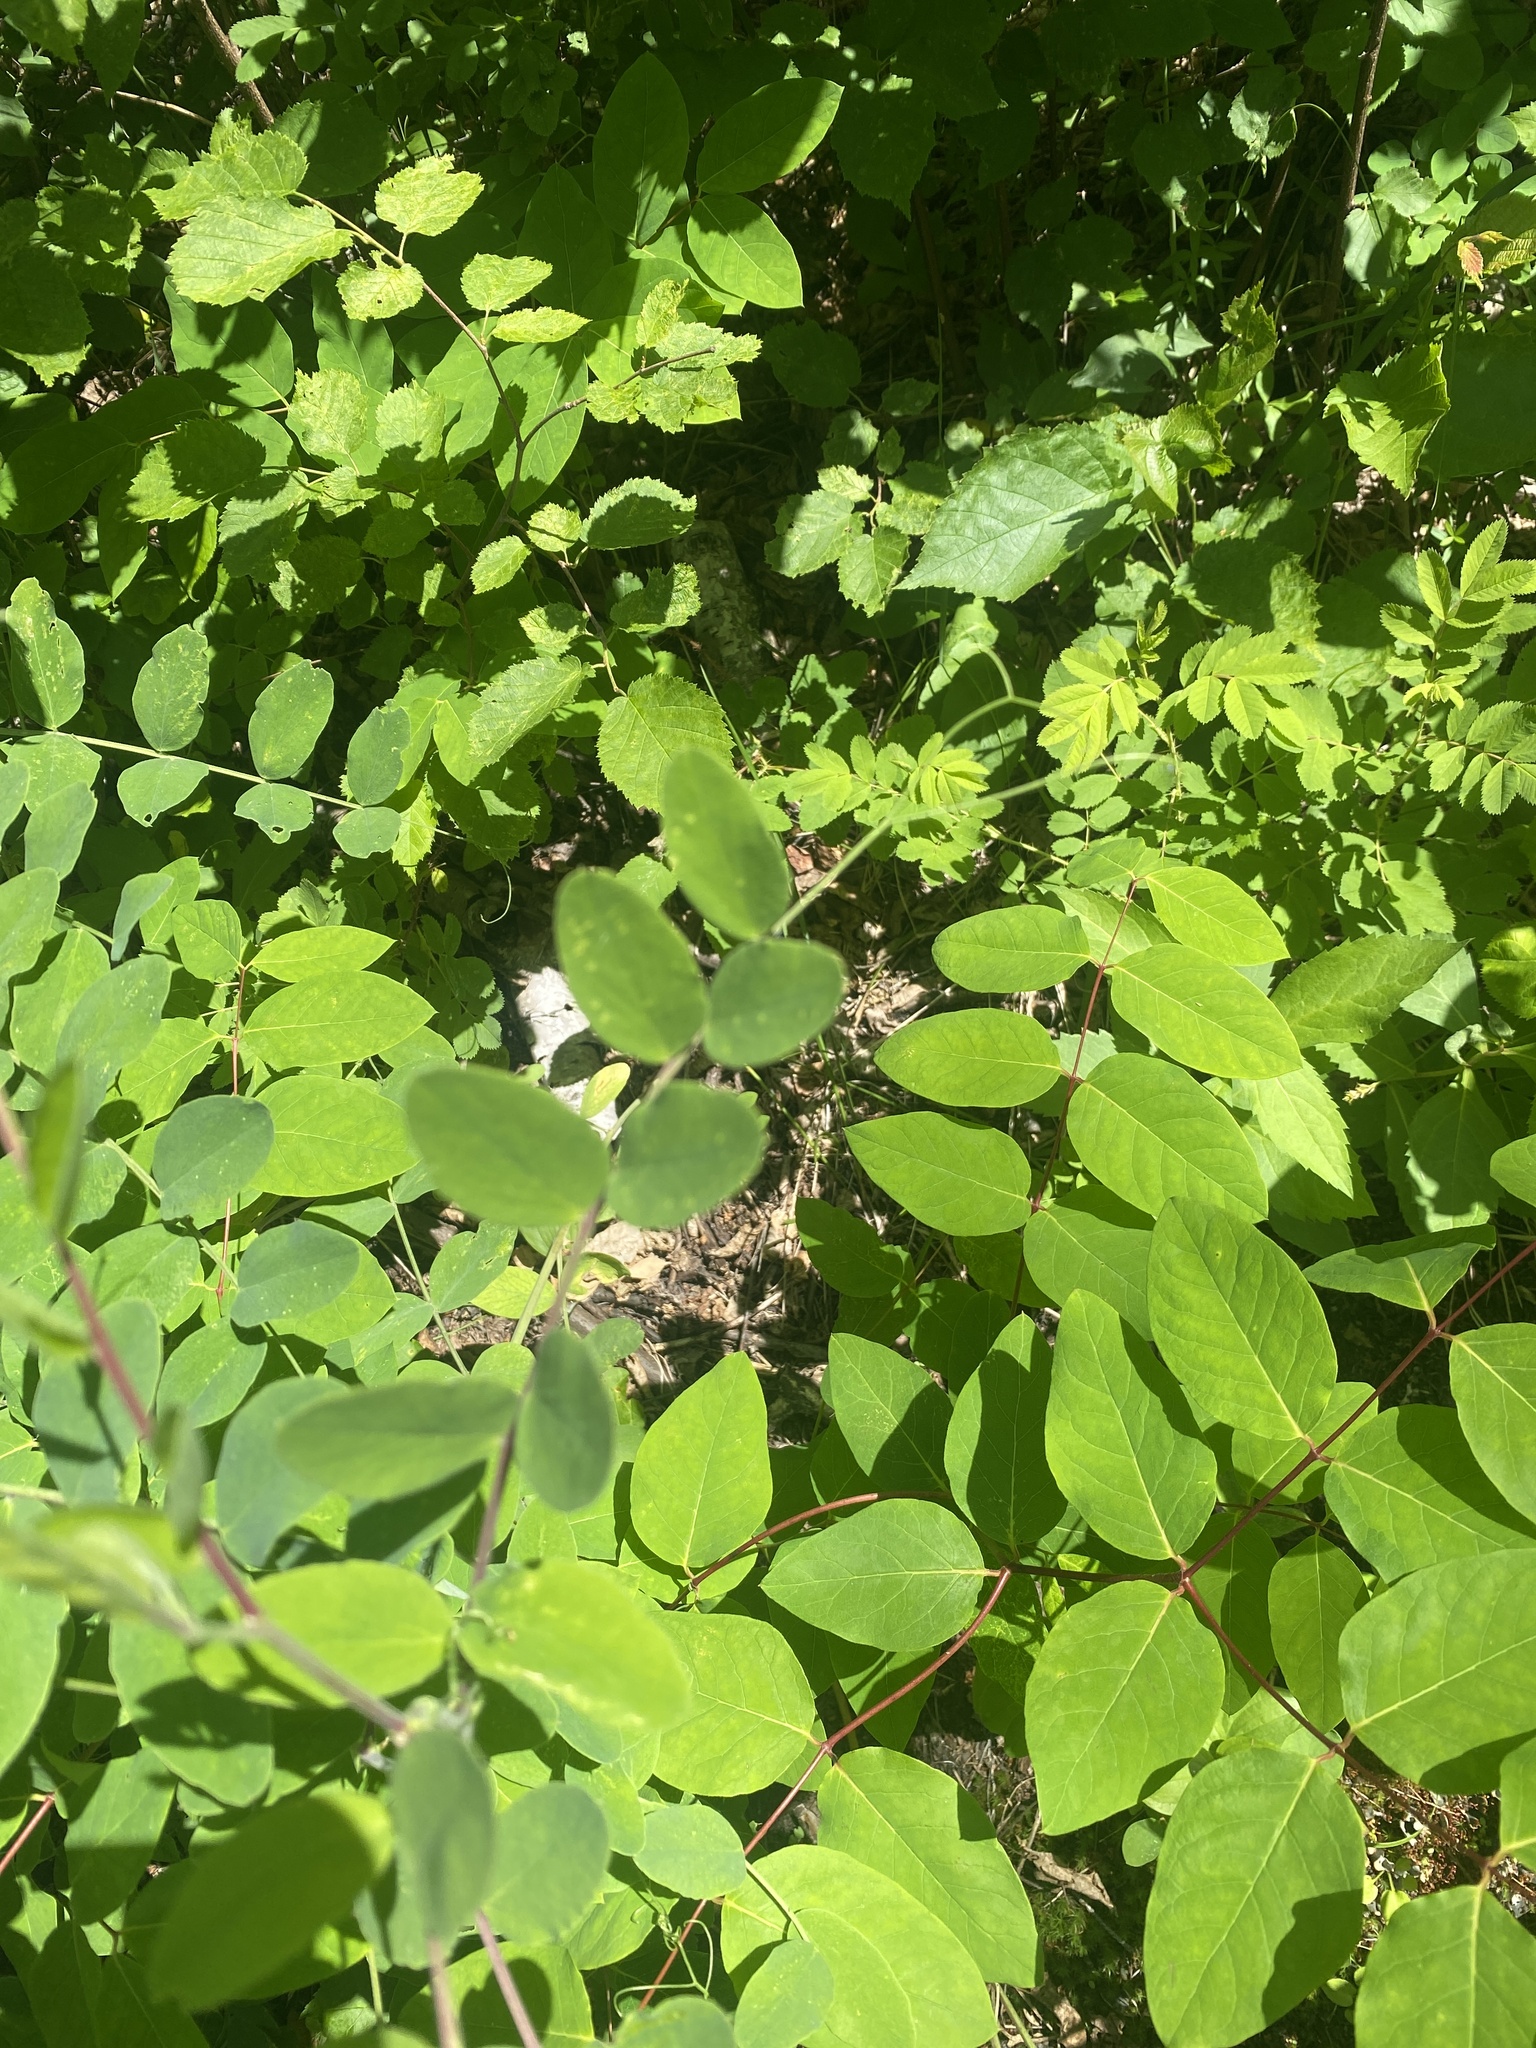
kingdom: Plantae
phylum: Tracheophyta
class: Magnoliopsida
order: Fabales
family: Fabaceae
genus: Lathyrus
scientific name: Lathyrus venosus
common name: Forest-pea
